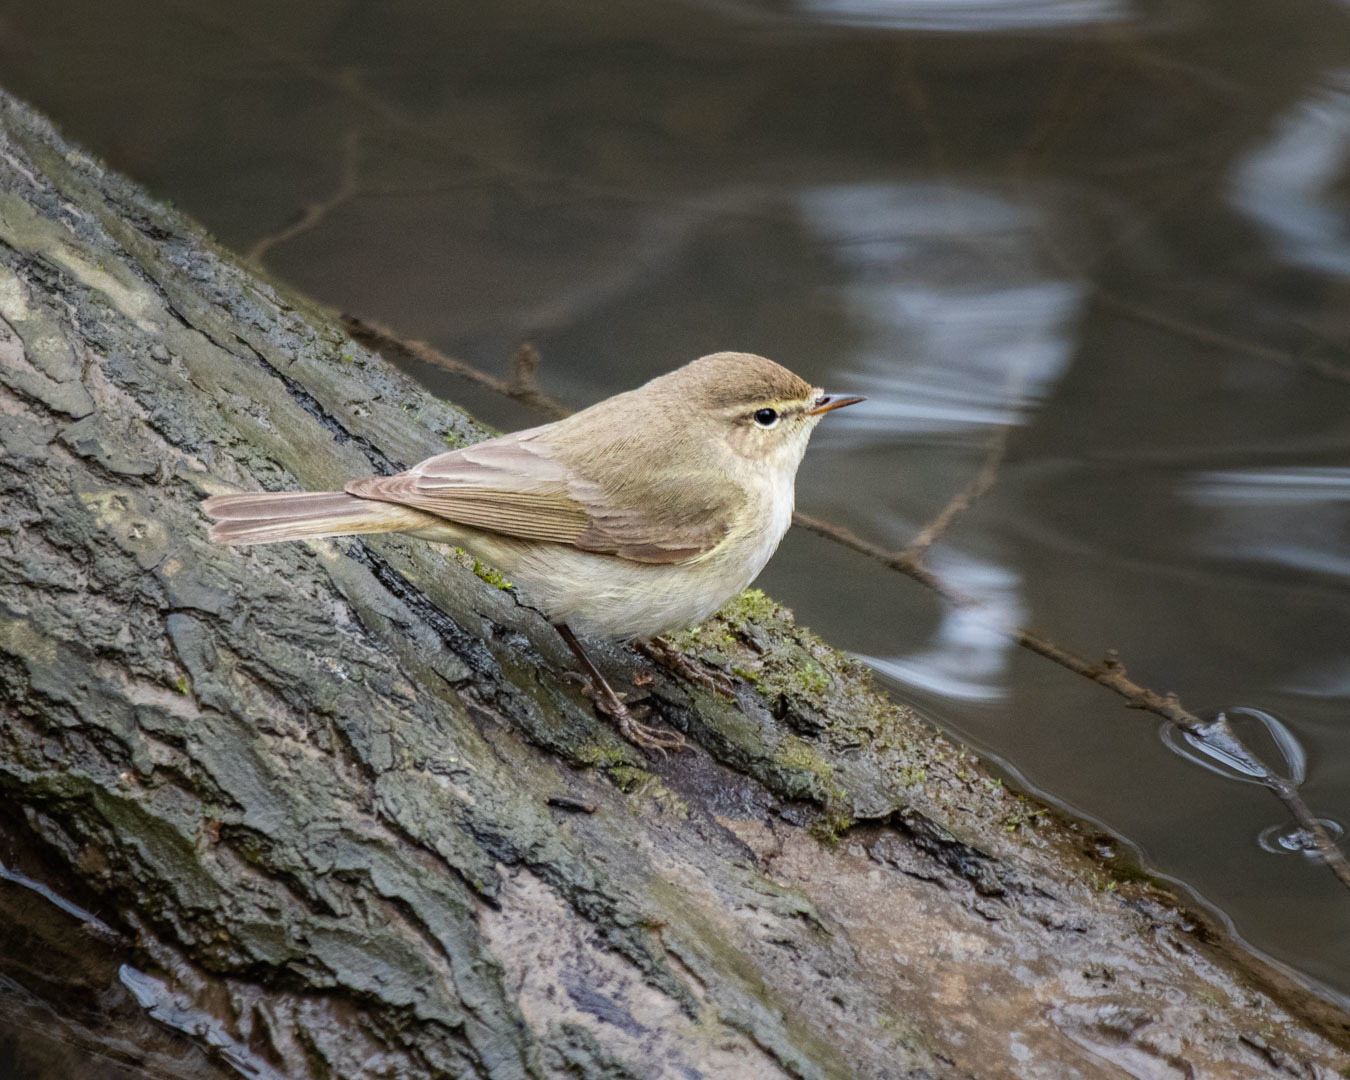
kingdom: Animalia
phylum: Chordata
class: Aves
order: Passeriformes
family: Phylloscopidae
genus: Phylloscopus
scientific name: Phylloscopus collybita
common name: Common chiffchaff
